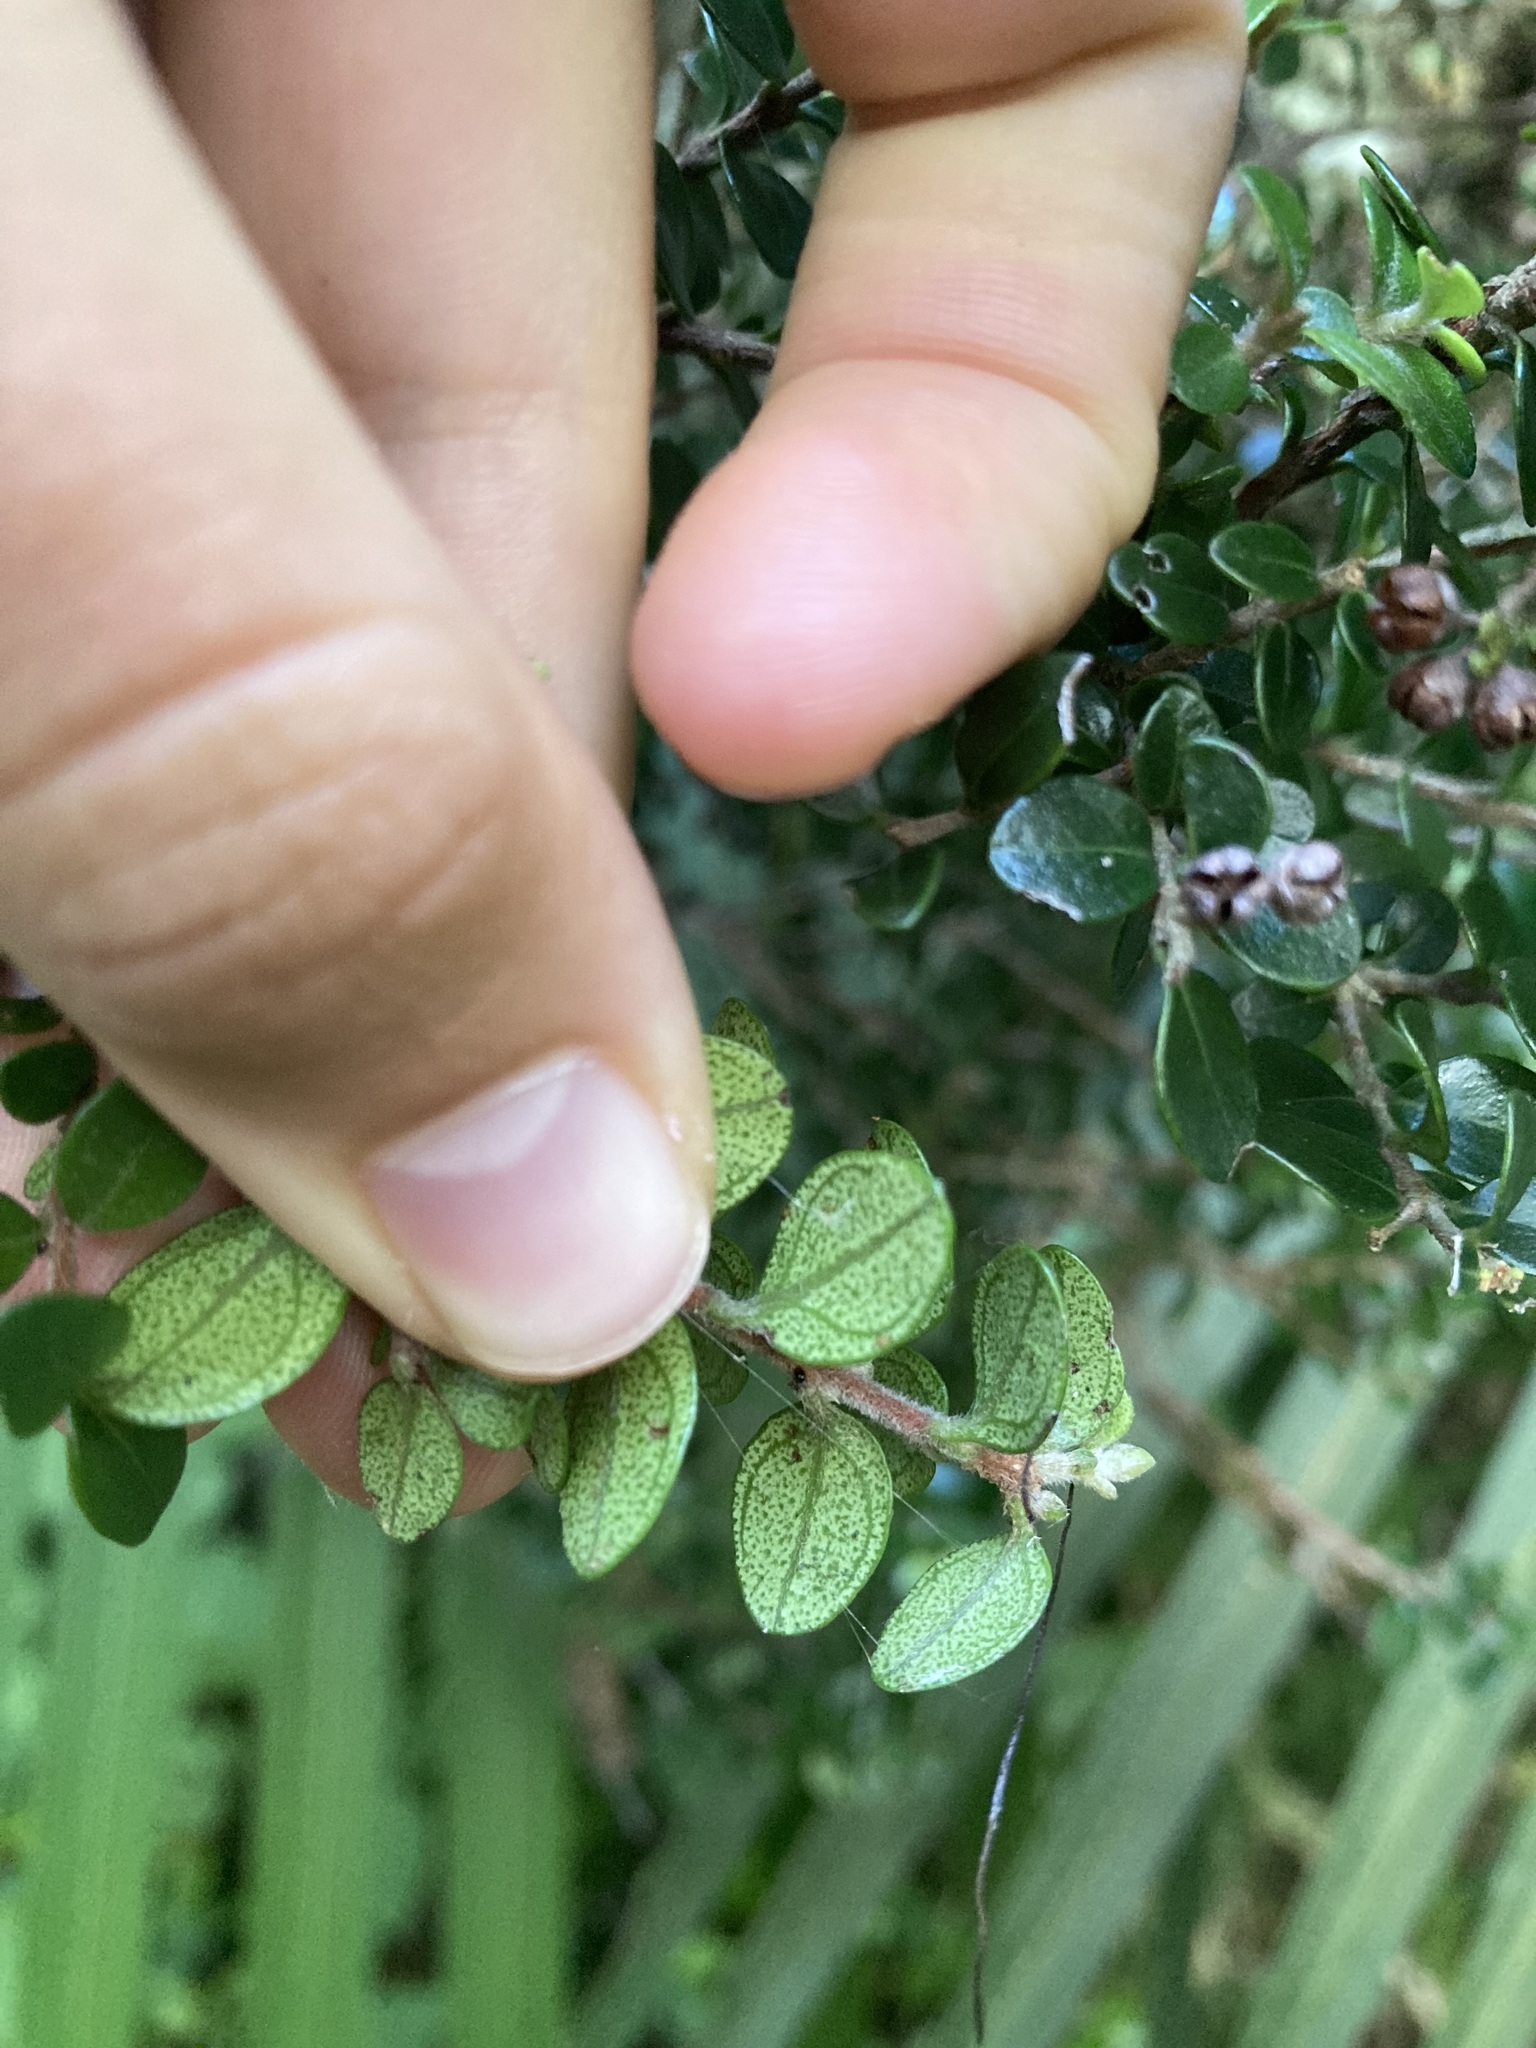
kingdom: Plantae
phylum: Tracheophyta
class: Magnoliopsida
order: Myrtales
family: Myrtaceae
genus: Metrosideros
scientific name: Metrosideros perforata
